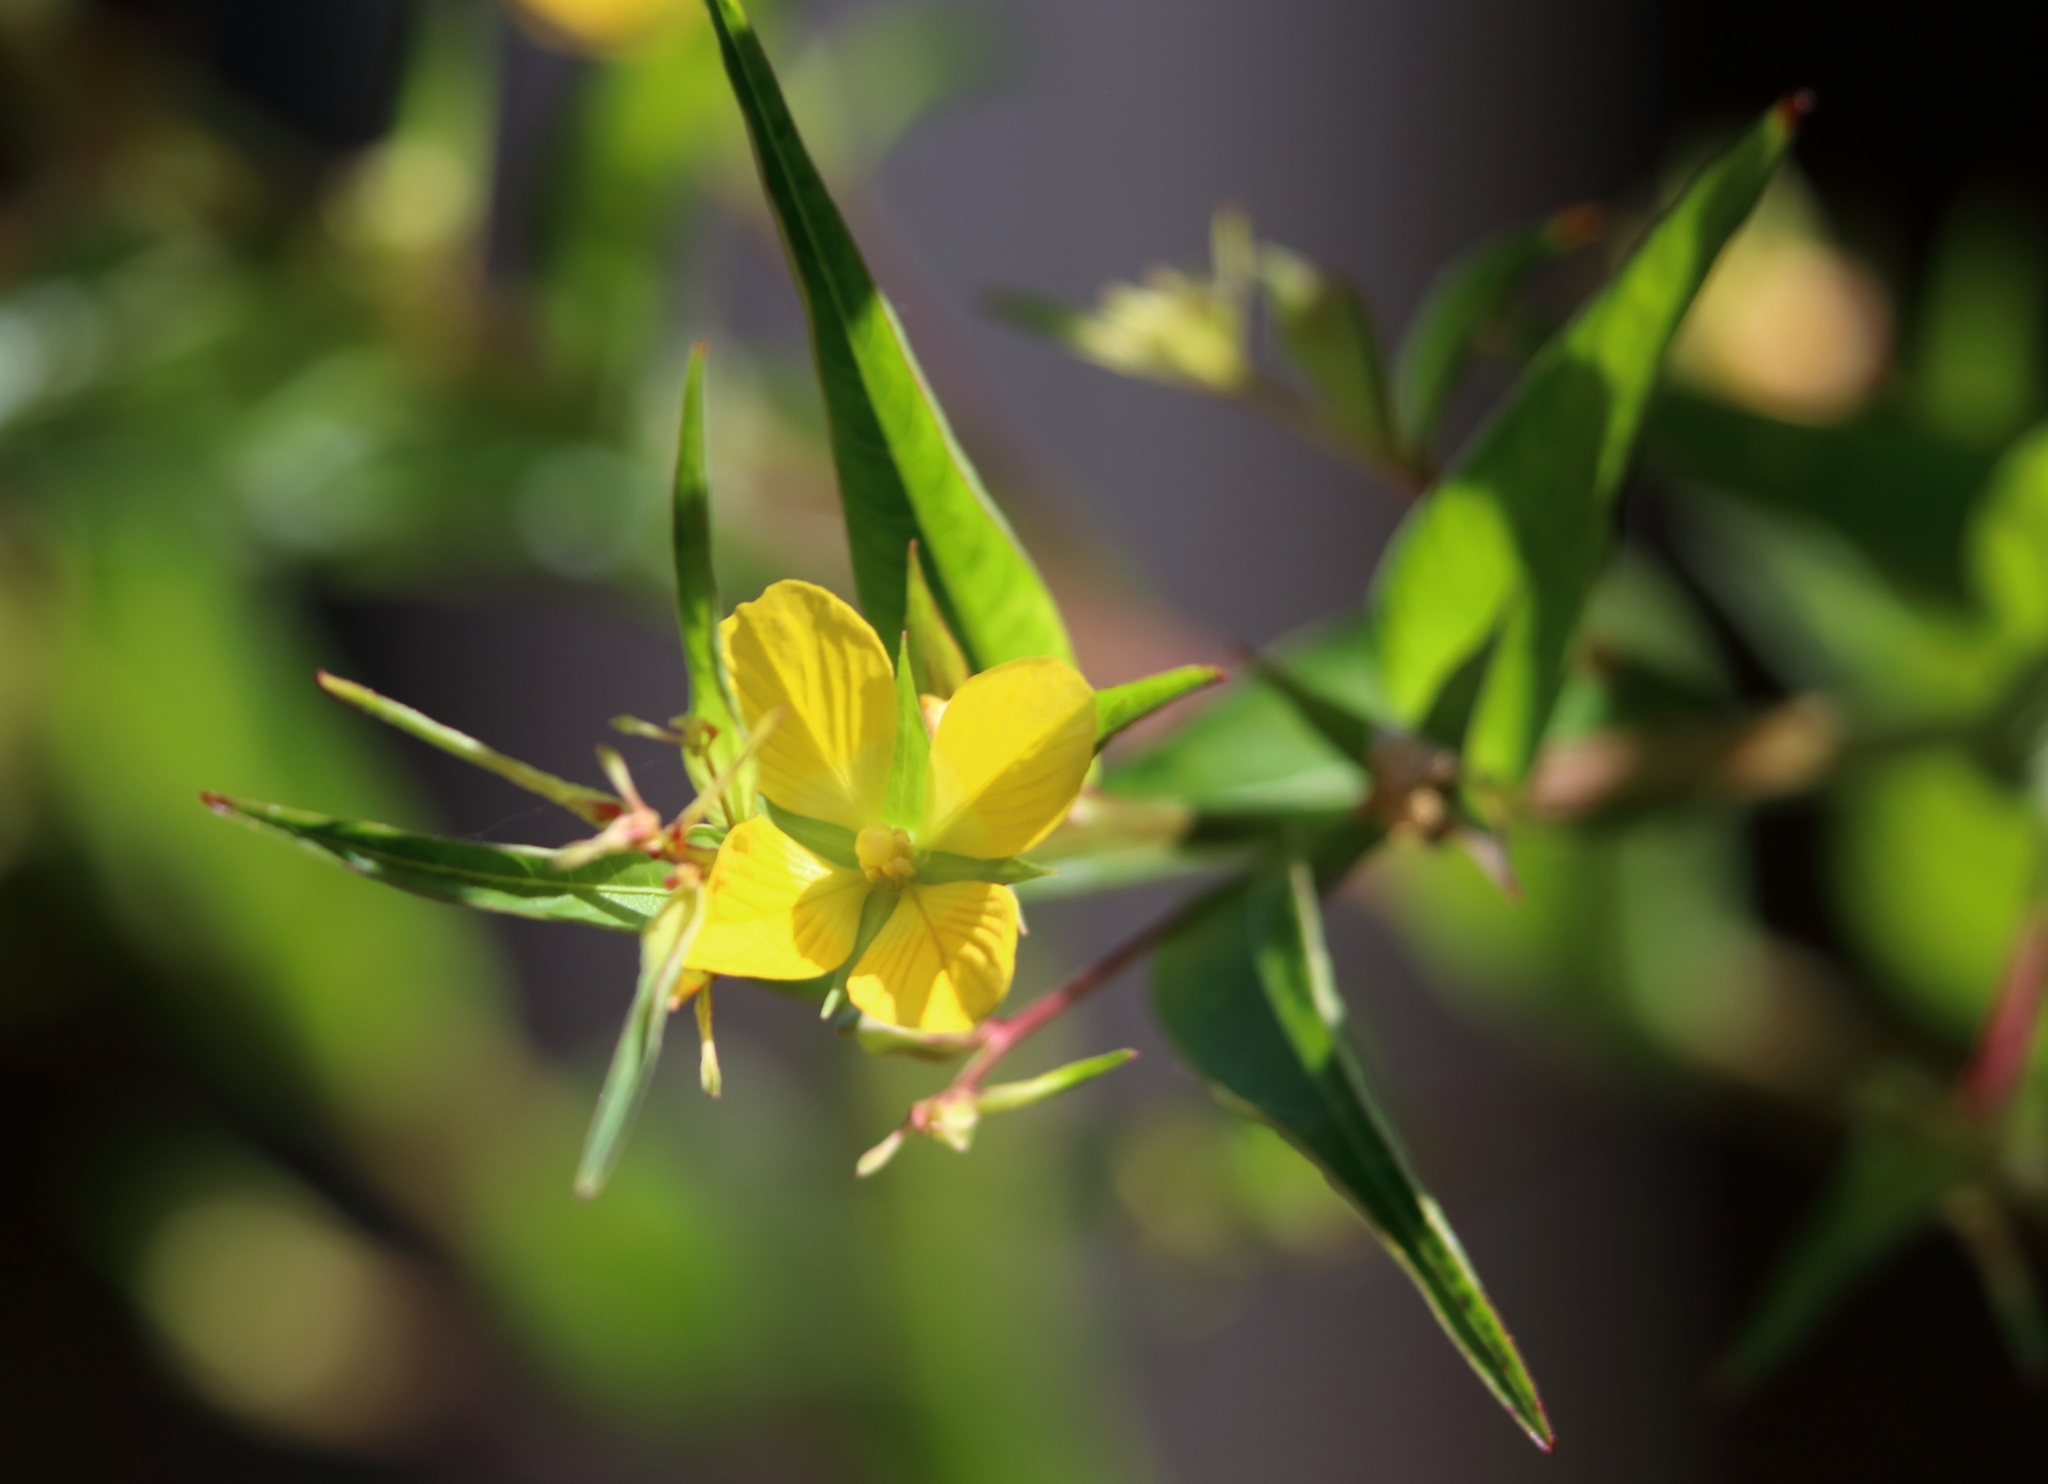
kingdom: Plantae
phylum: Tracheophyta
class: Magnoliopsida
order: Myrtales
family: Onagraceae
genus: Ludwigia
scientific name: Ludwigia decurrens
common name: Winged water-primrose
